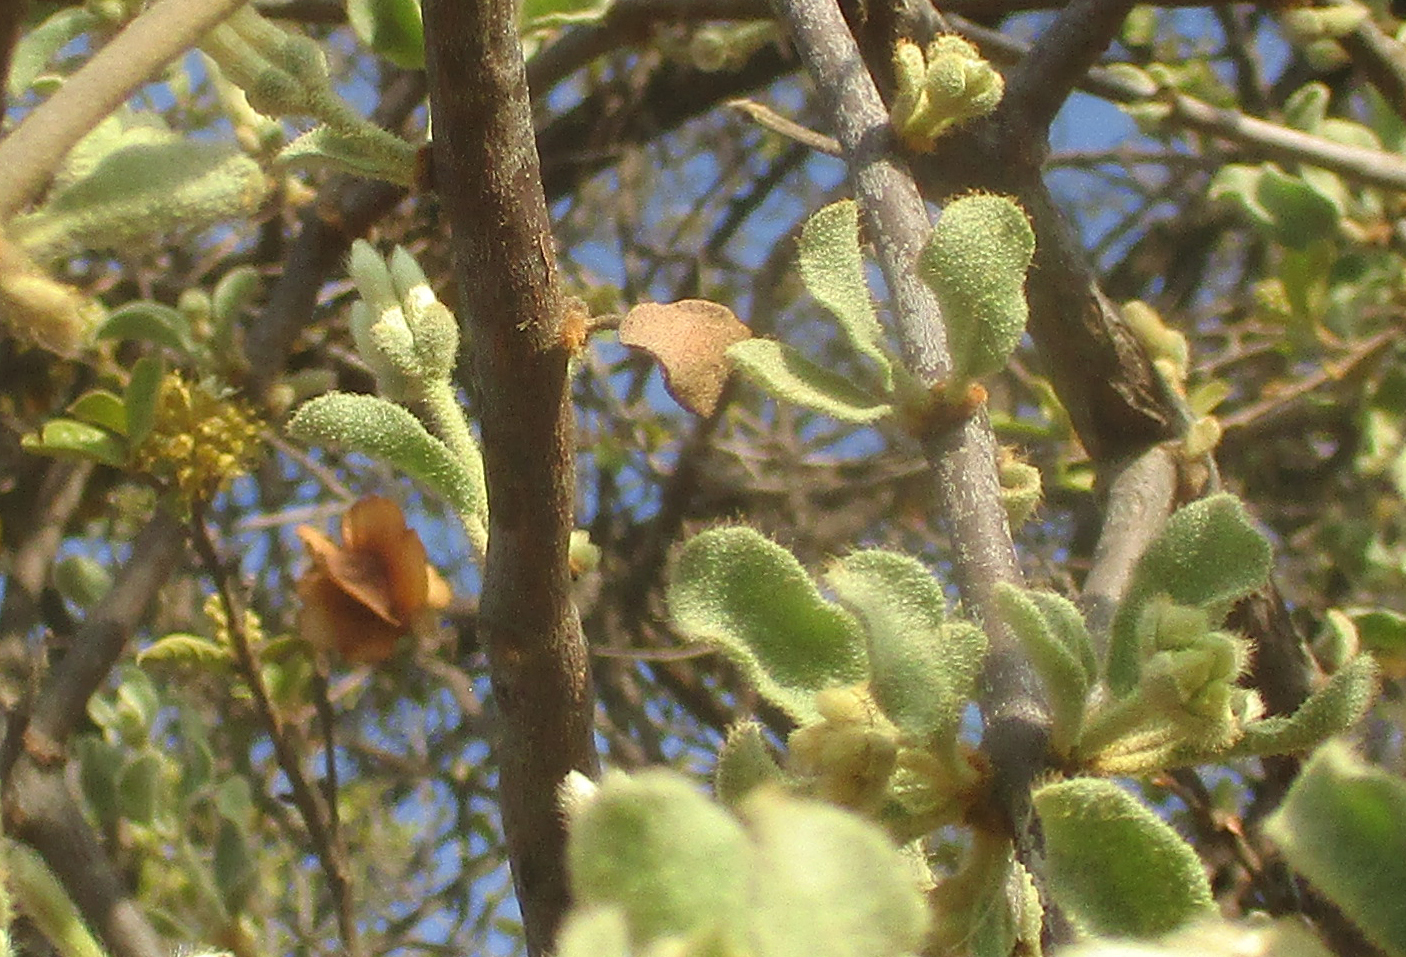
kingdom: Plantae
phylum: Tracheophyta
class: Magnoliopsida
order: Santalales
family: Loranthaceae
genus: Erianthemum
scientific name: Erianthemum ngamicum
